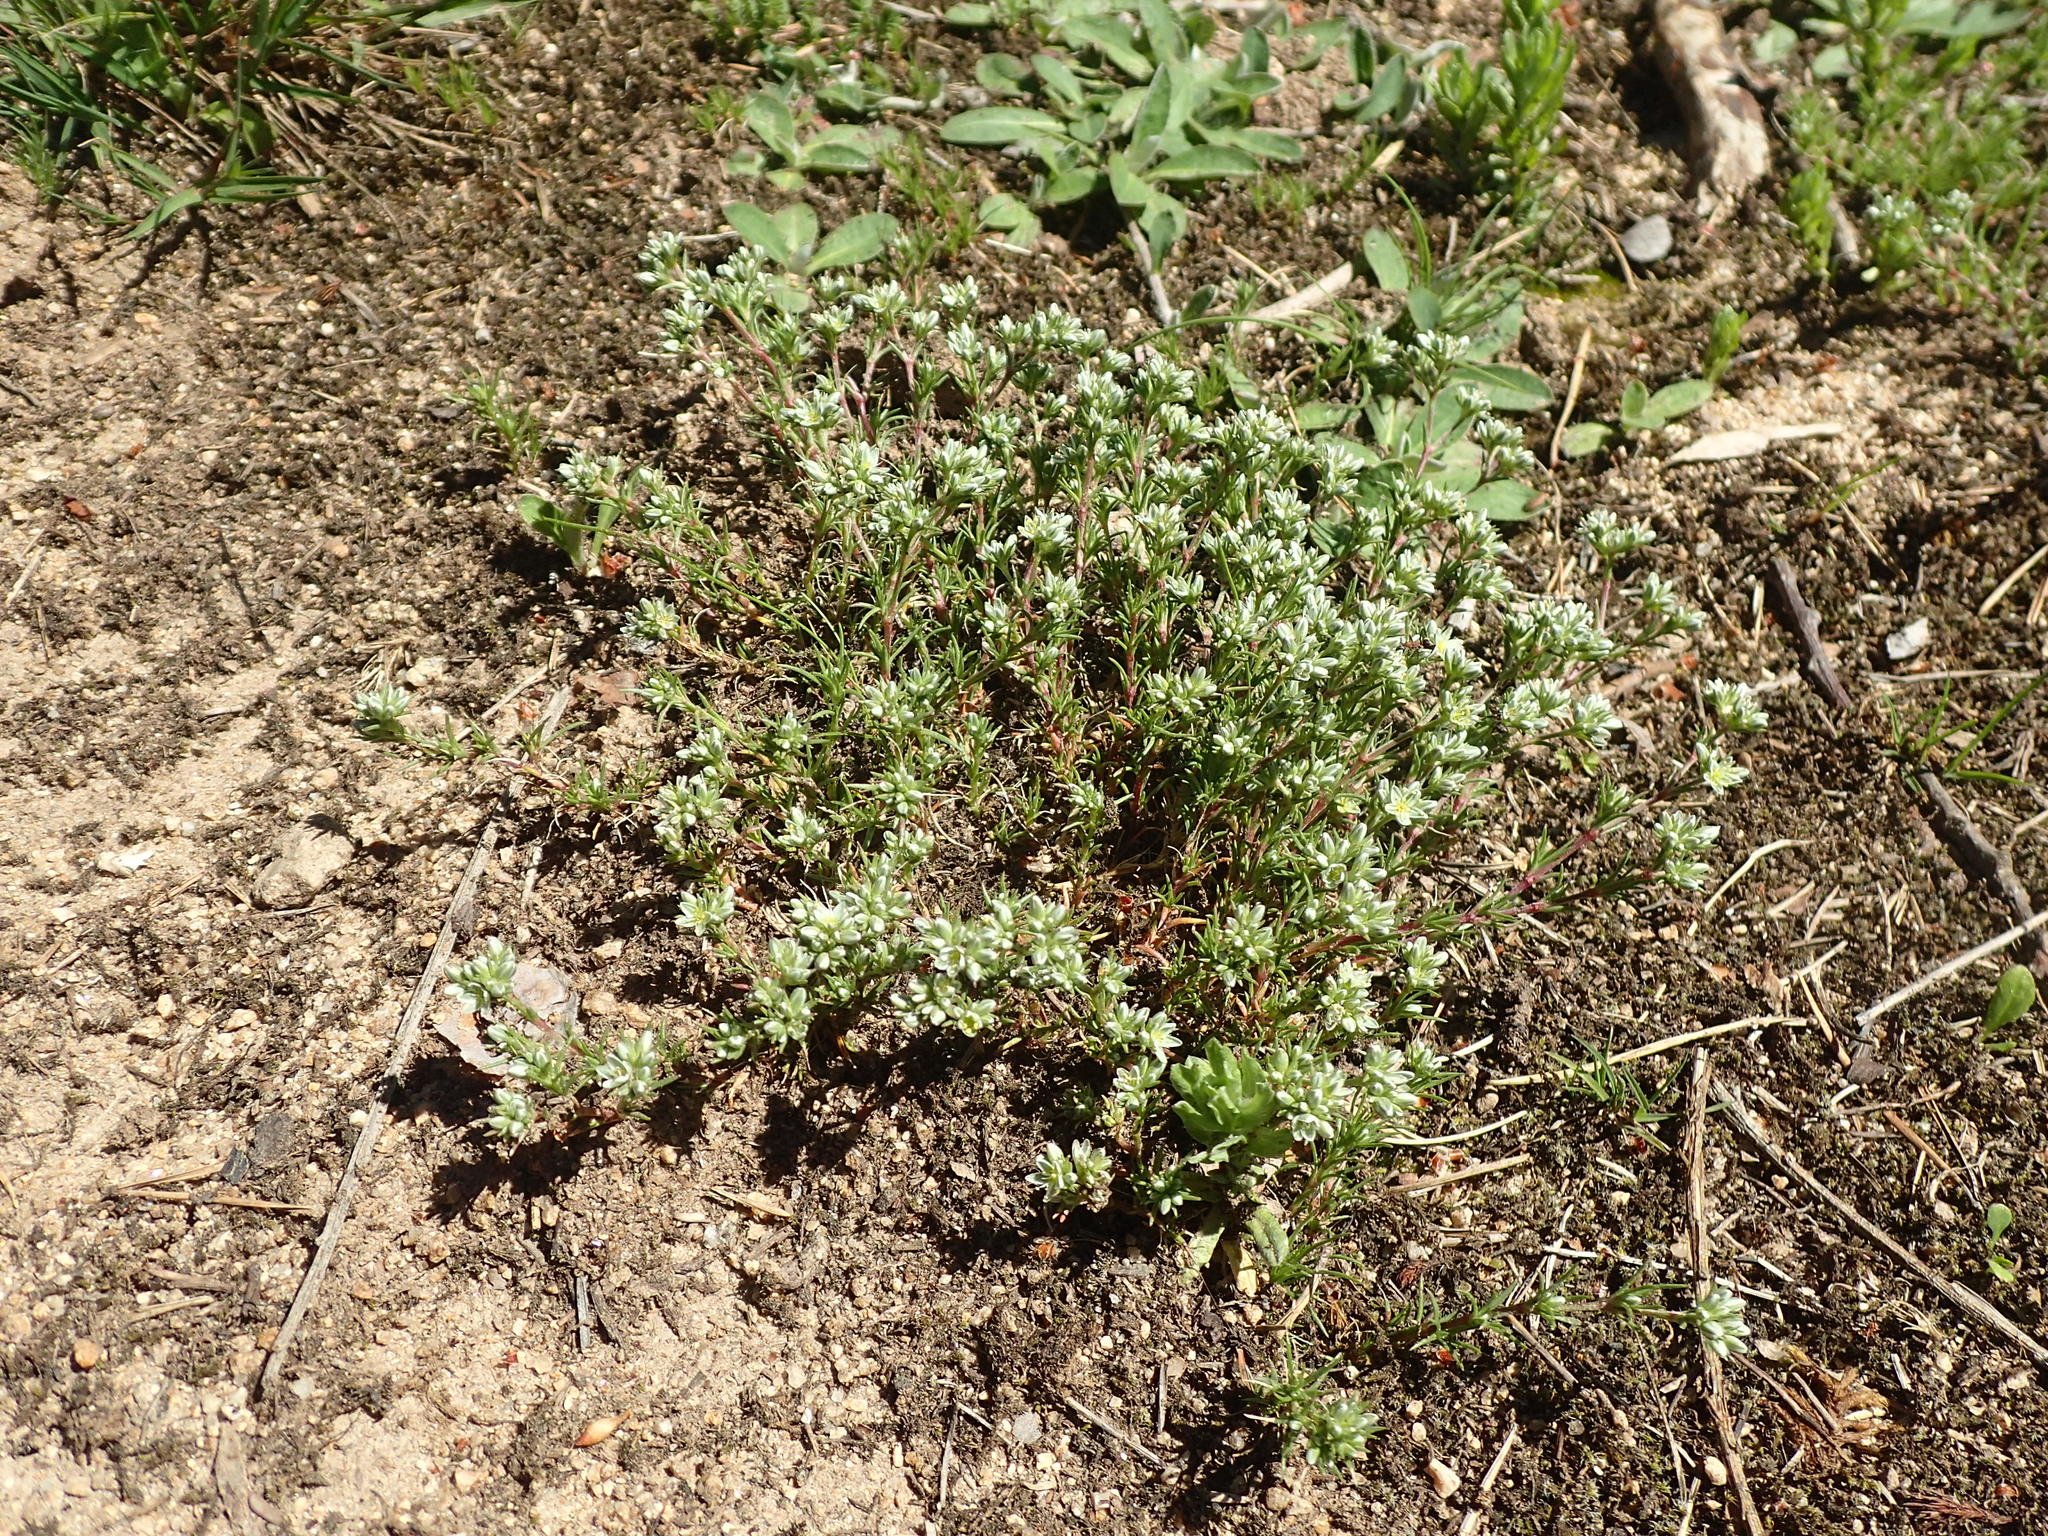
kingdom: Plantae
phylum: Tracheophyta
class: Magnoliopsida
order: Caryophyllales
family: Caryophyllaceae
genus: Scleranthus
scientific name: Scleranthus perennis
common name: Perennial knawel
